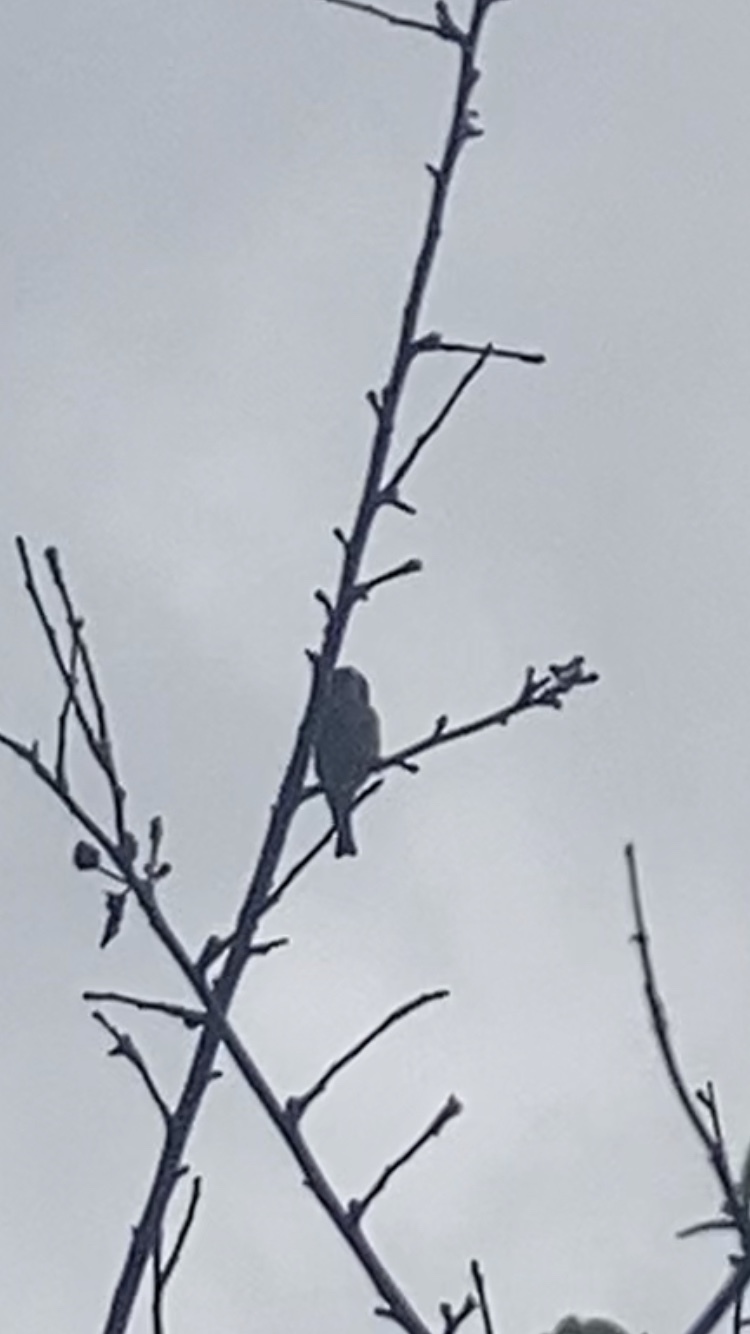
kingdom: Animalia
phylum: Chordata
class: Aves
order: Passeriformes
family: Fringillidae
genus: Carduelis
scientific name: Carduelis carduelis
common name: European goldfinch
